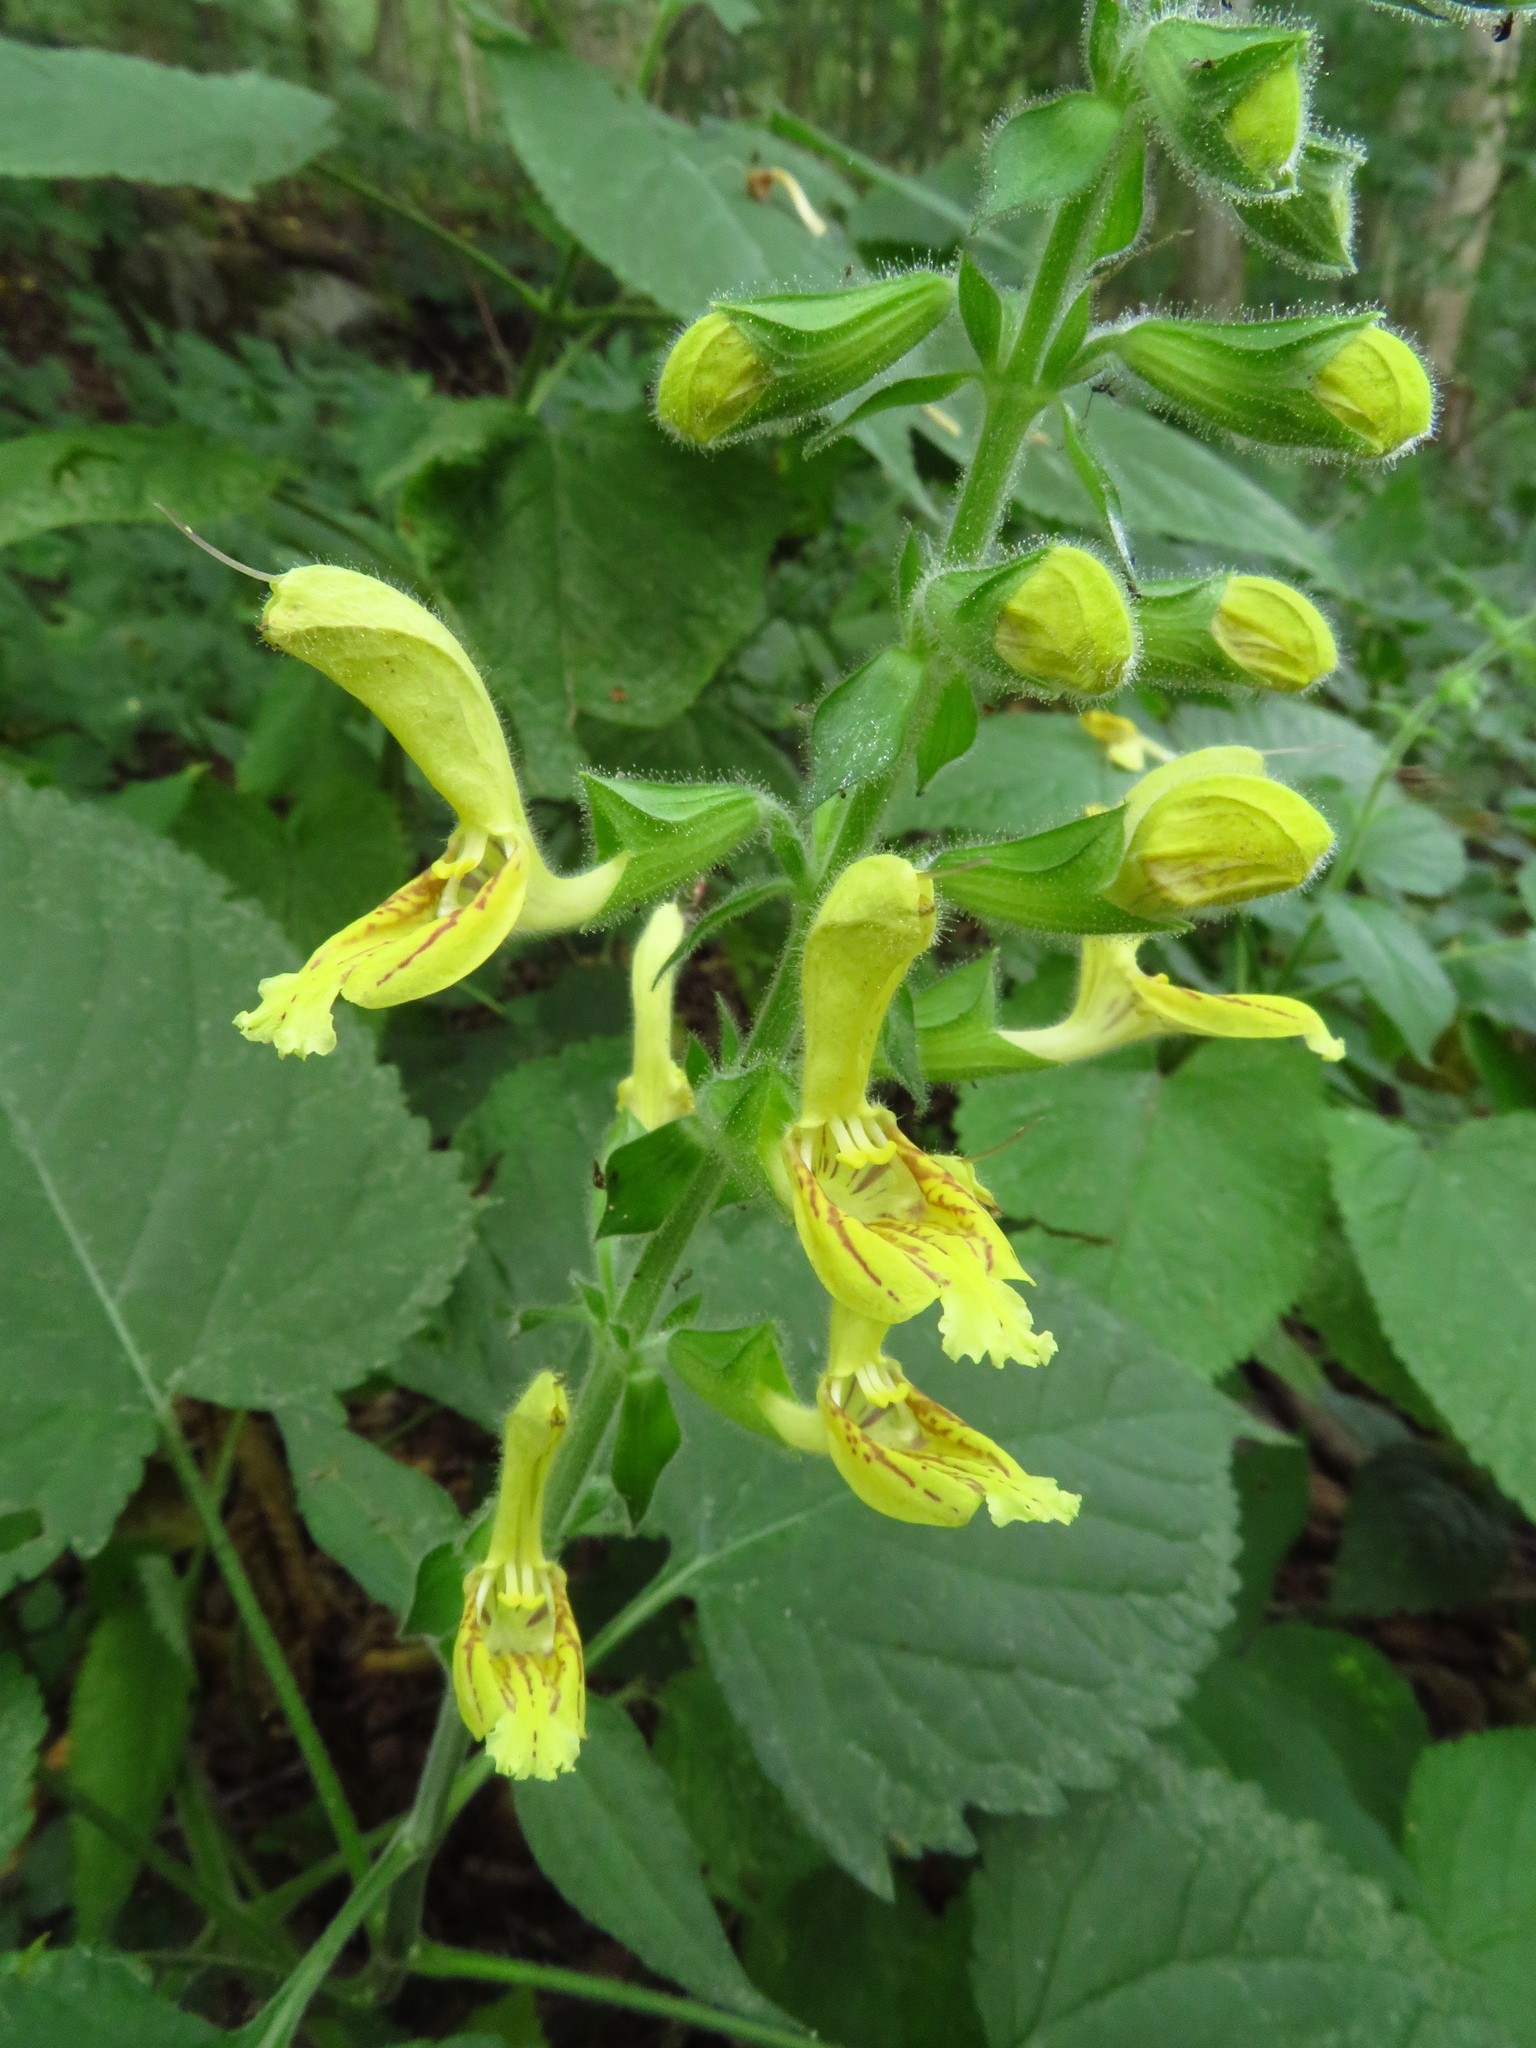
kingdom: Plantae
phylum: Tracheophyta
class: Magnoliopsida
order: Lamiales
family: Lamiaceae
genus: Salvia
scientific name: Salvia glutinosa
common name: Sticky clary
